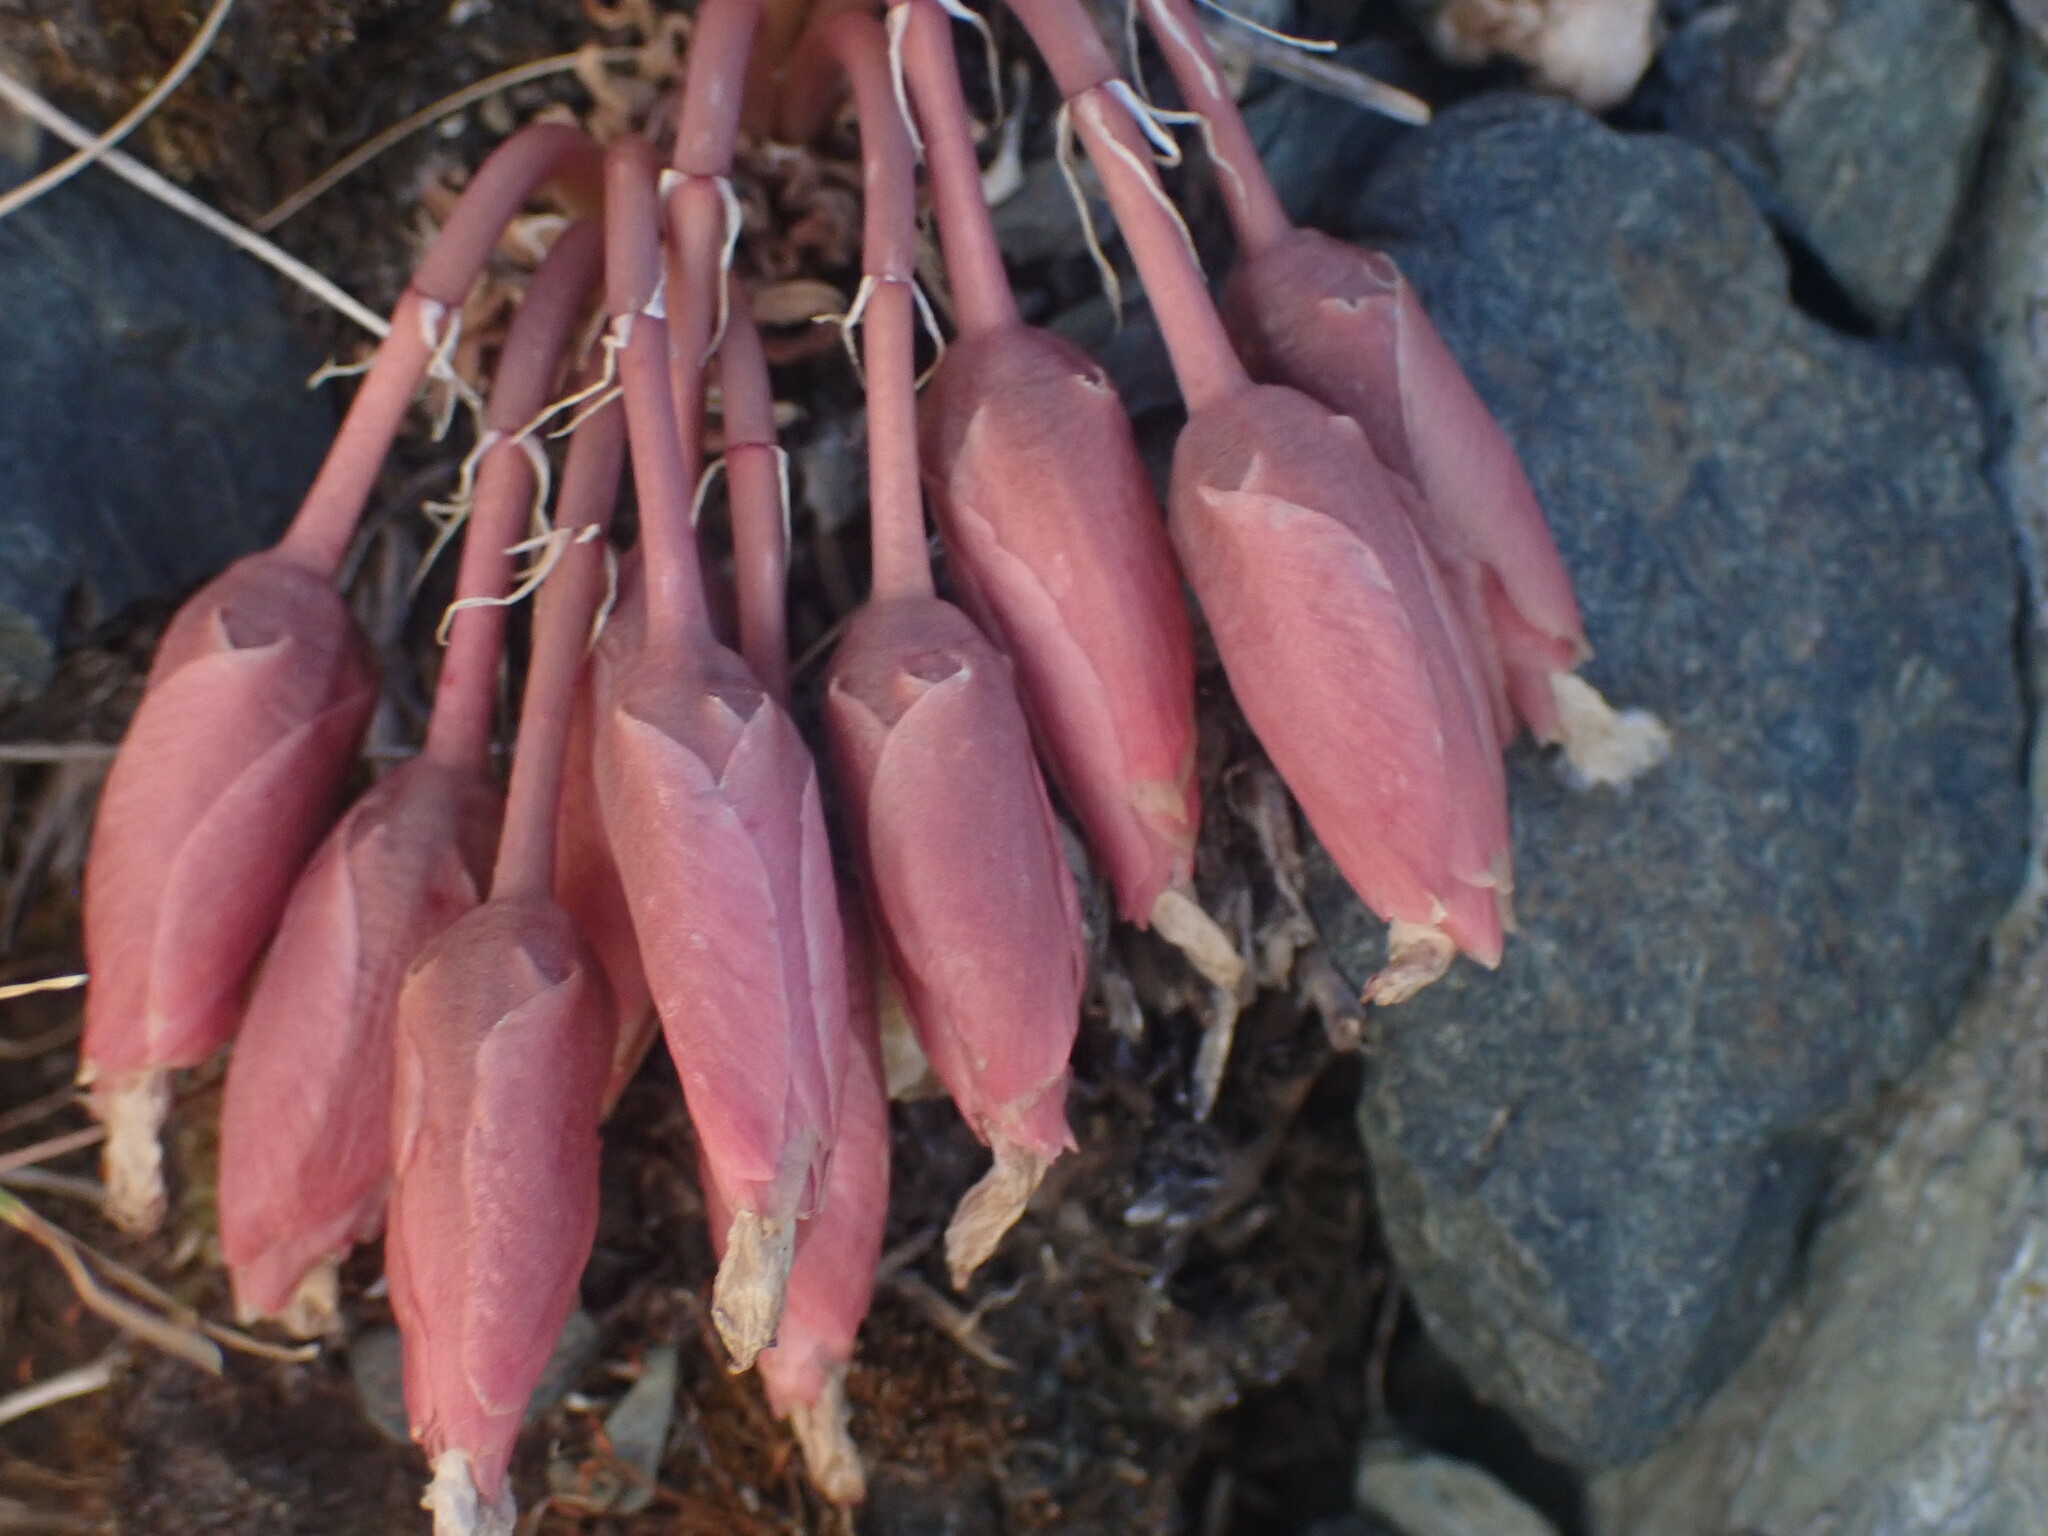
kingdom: Plantae
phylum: Tracheophyta
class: Magnoliopsida
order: Caryophyllales
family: Montiaceae
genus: Lewisia
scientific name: Lewisia rediviva
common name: Bitter-root
